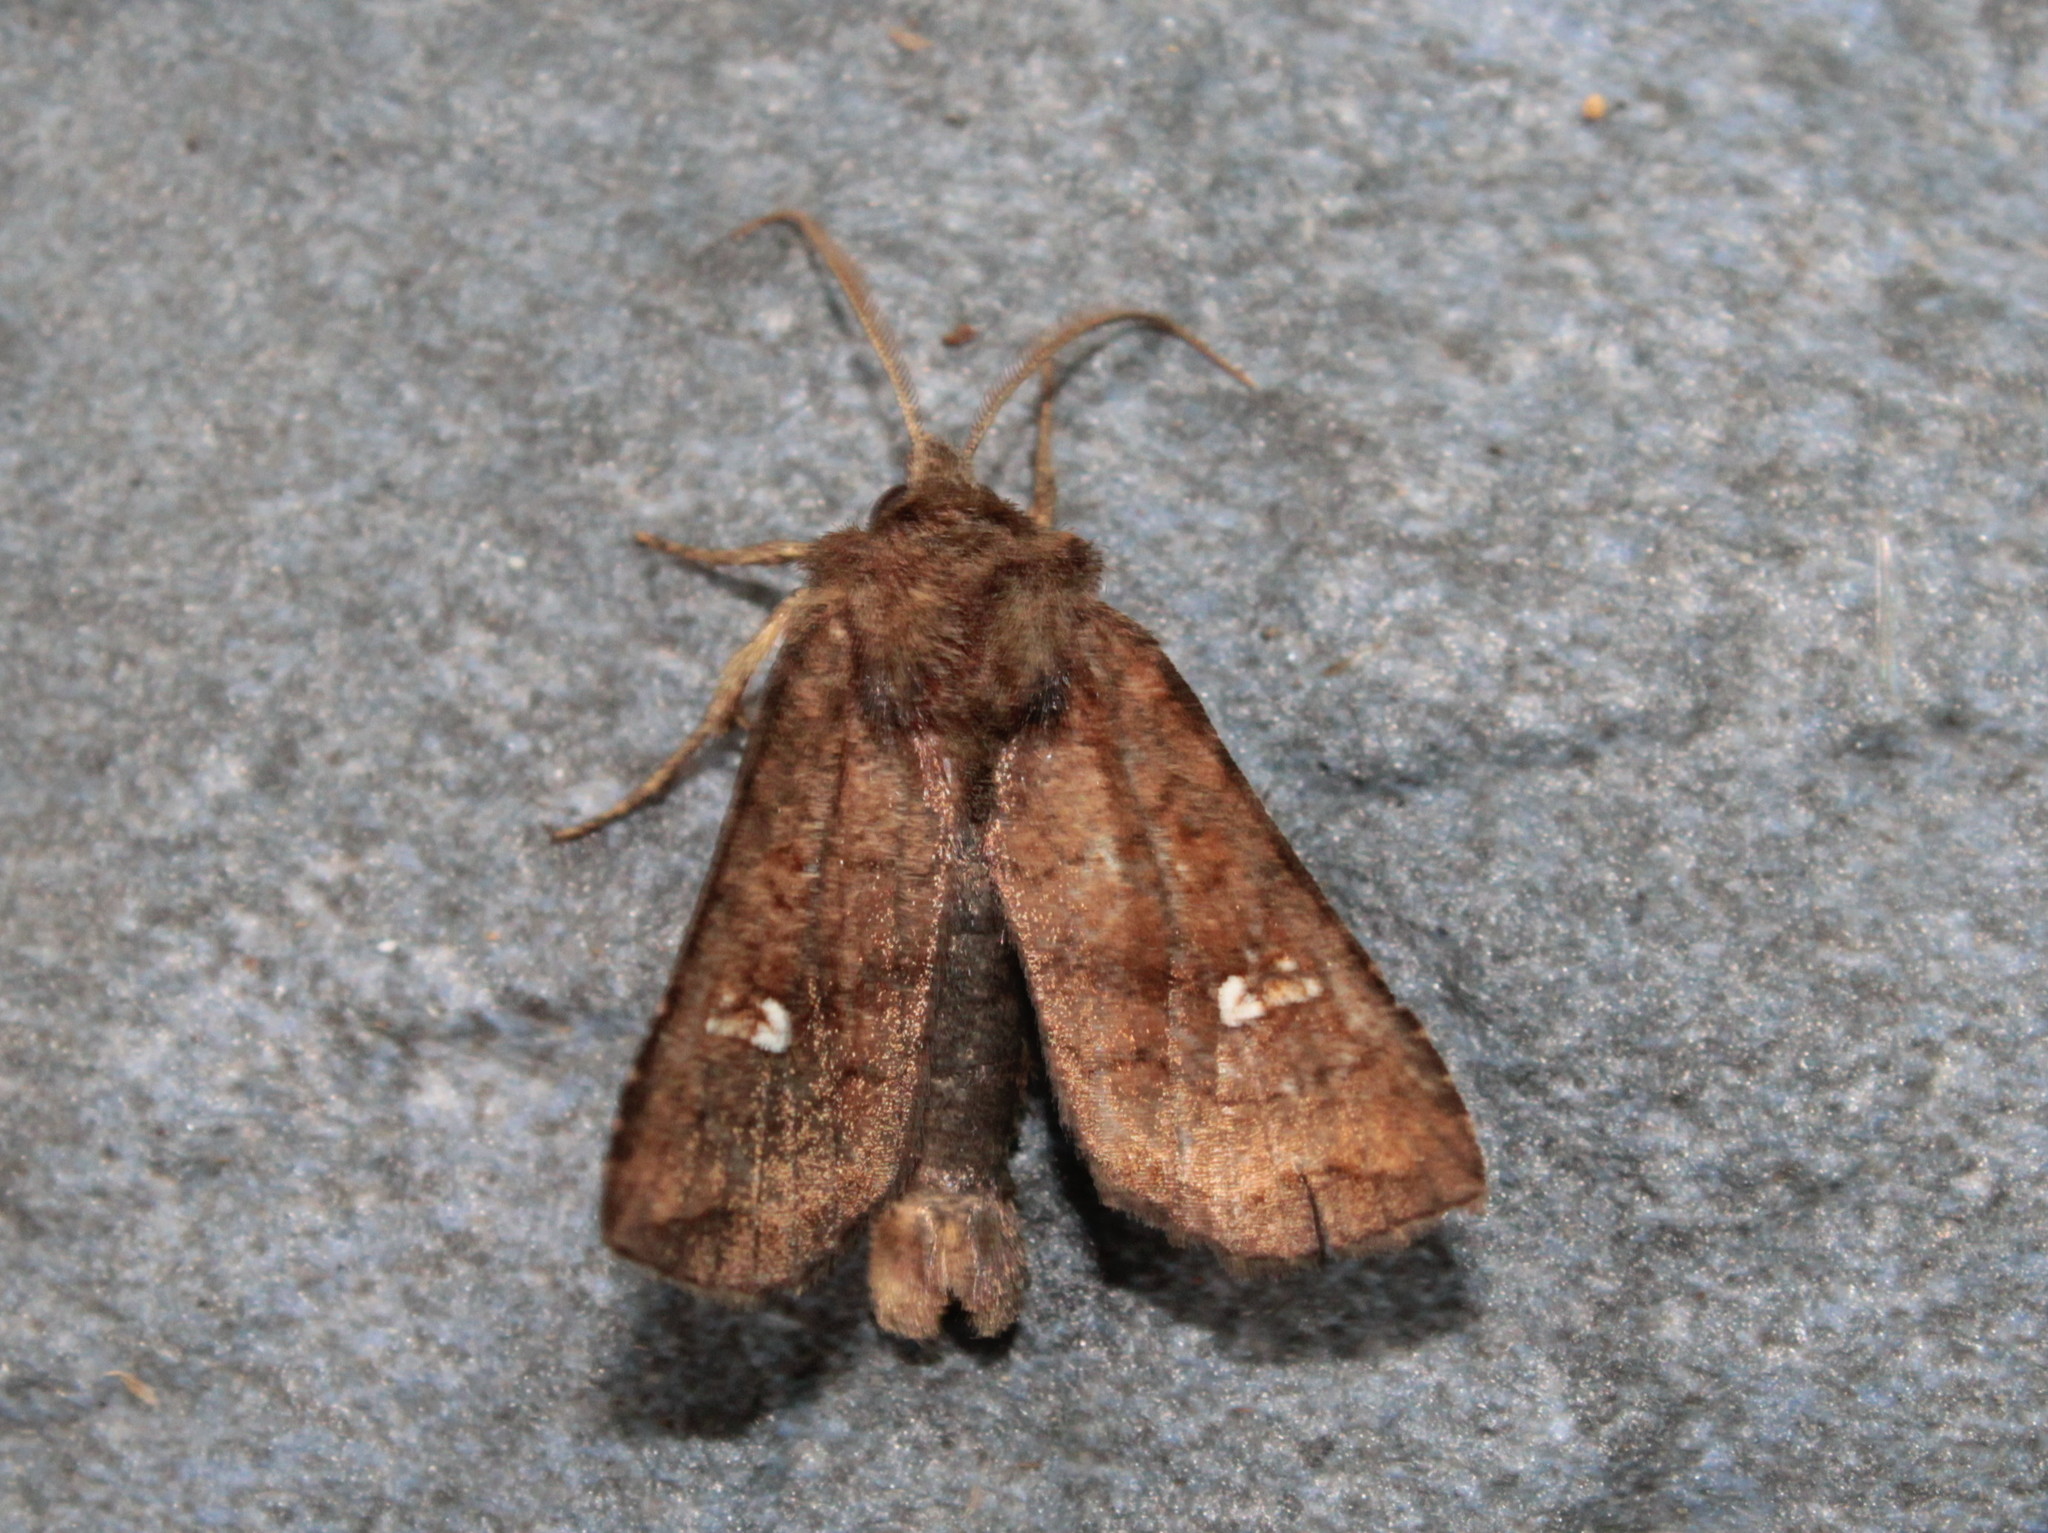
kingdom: Animalia
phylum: Arthropoda
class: Insecta
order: Lepidoptera
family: Noctuidae
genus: Tricholita
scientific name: Tricholita signata
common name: Signate quaker
